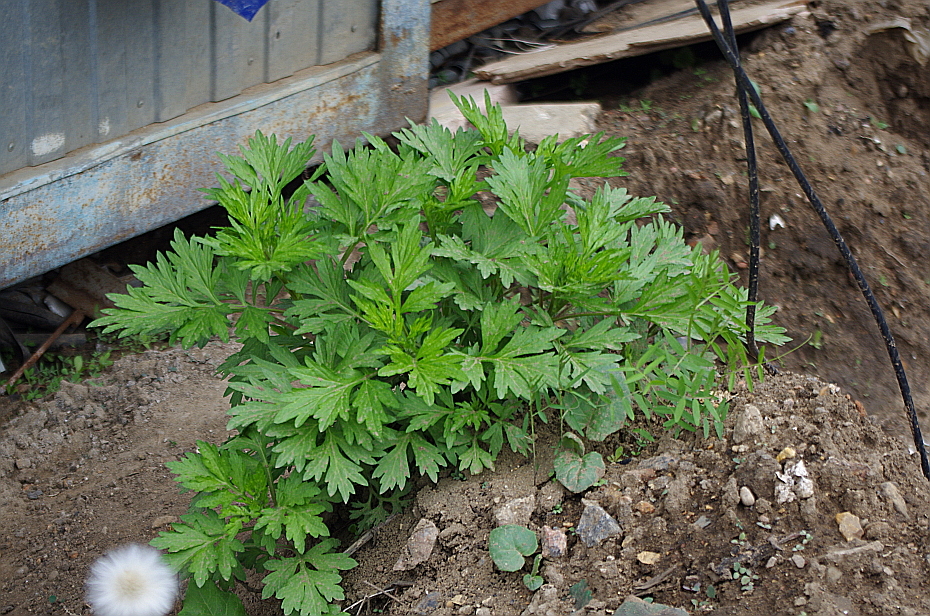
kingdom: Plantae
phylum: Tracheophyta
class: Magnoliopsida
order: Asterales
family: Asteraceae
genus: Artemisia
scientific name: Artemisia vulgaris
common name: Mugwort
